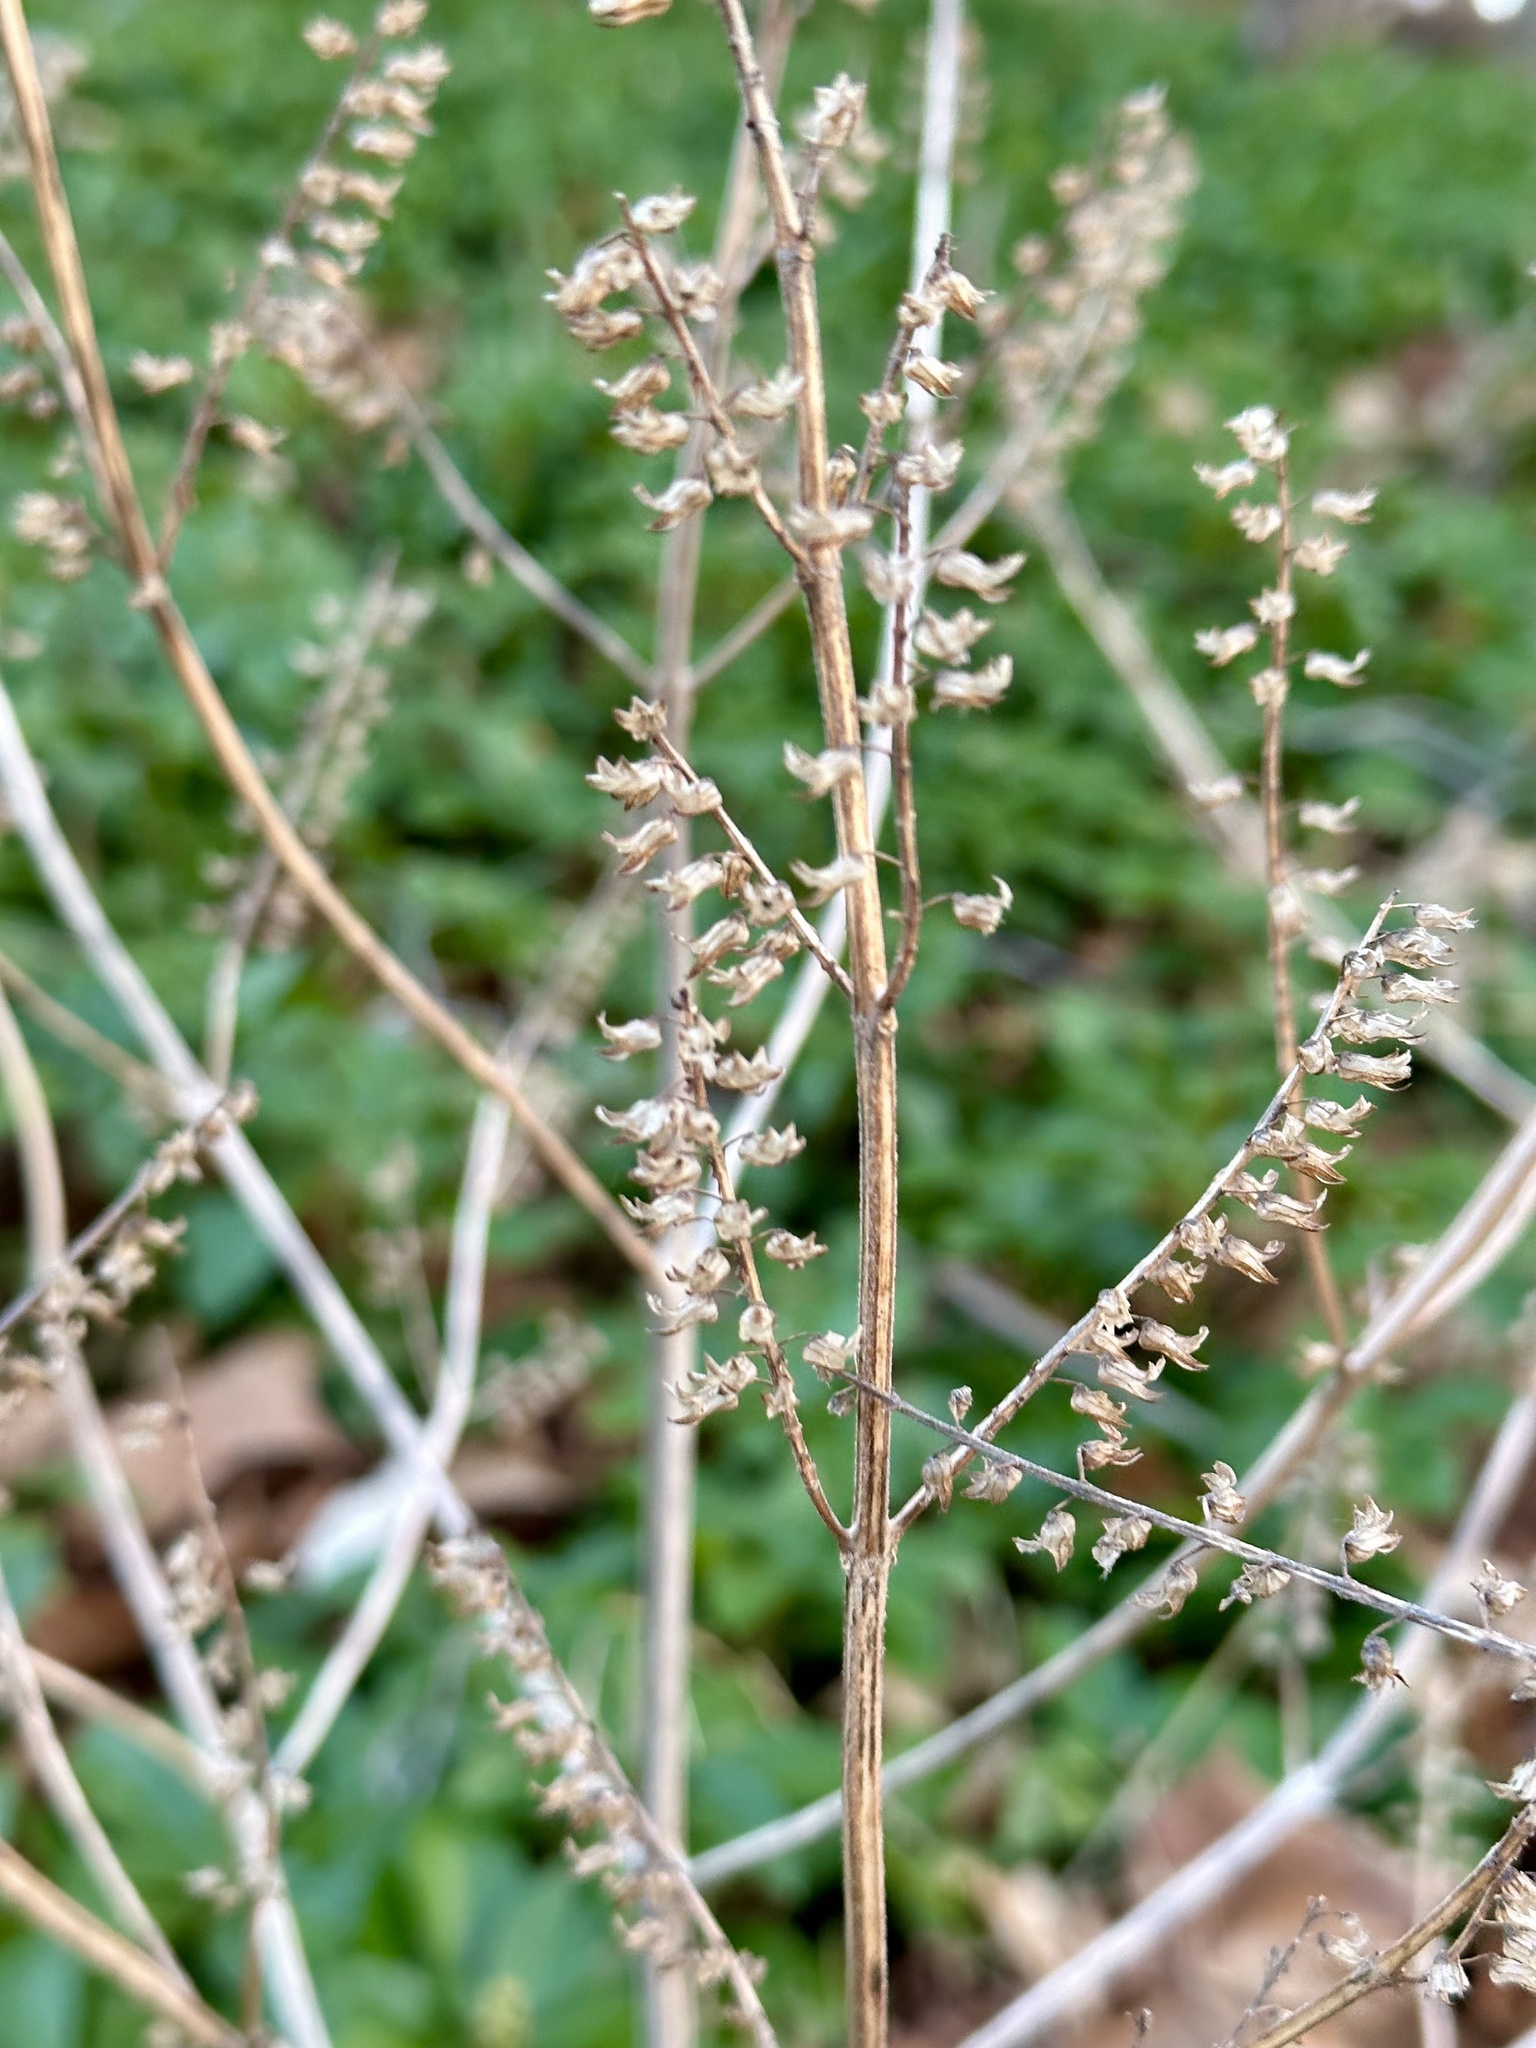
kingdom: Plantae
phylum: Tracheophyta
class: Magnoliopsida
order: Lamiales
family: Lamiaceae
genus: Perilla
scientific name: Perilla frutescens
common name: Perilla
